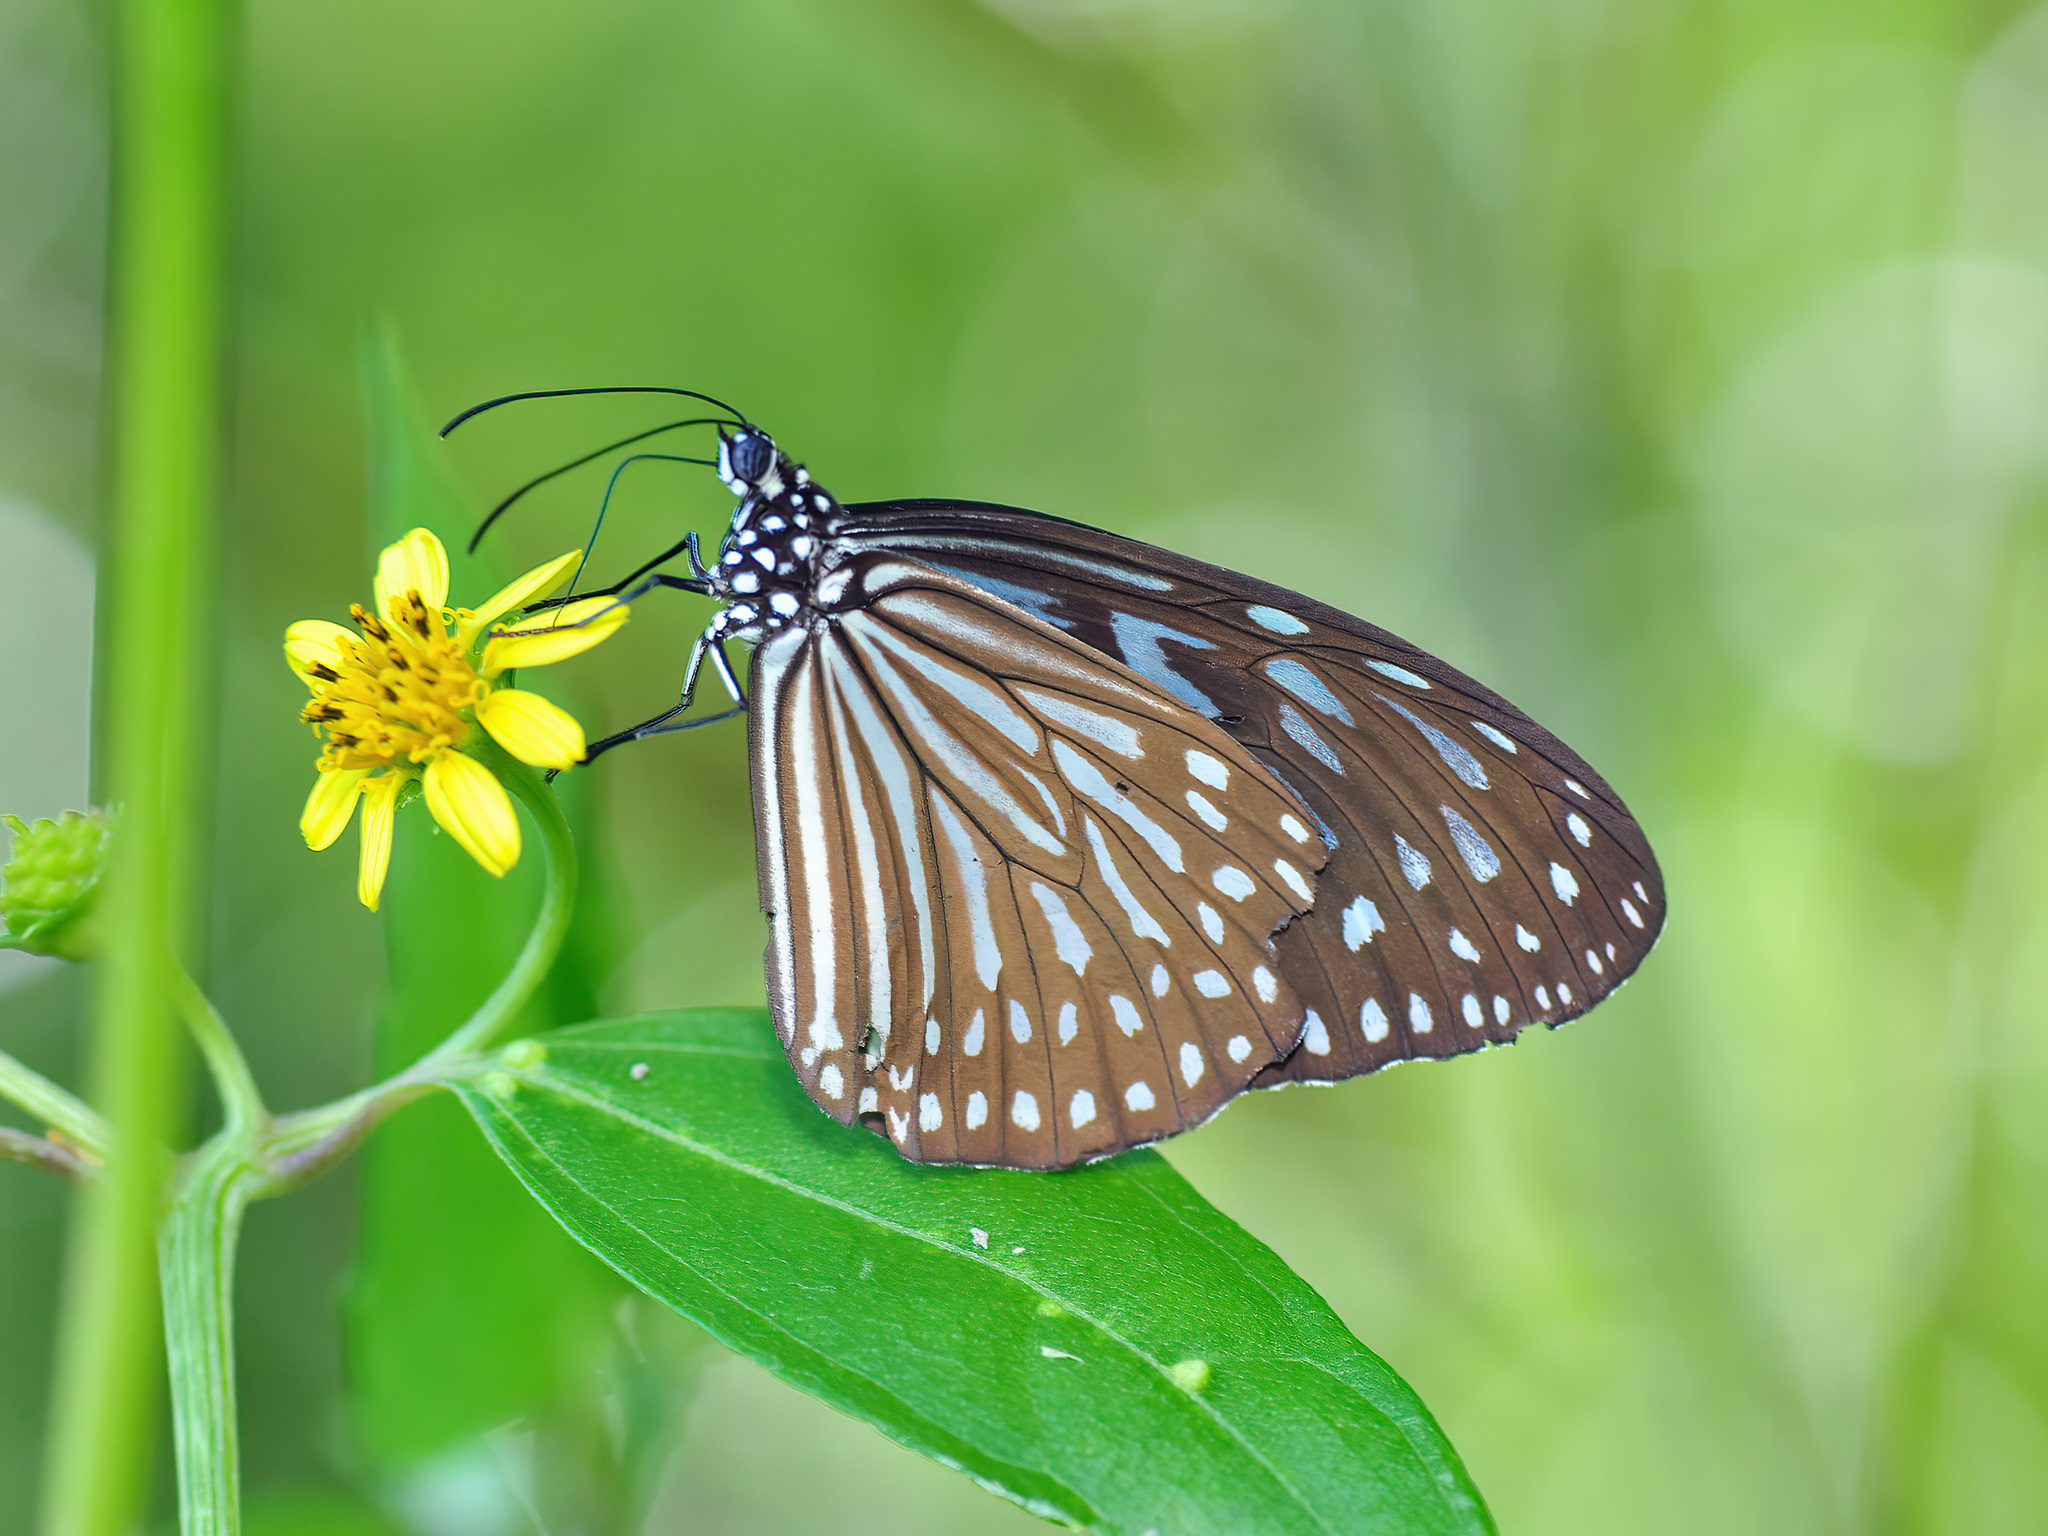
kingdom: Animalia
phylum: Arthropoda
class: Insecta
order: Lepidoptera
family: Nymphalidae
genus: Ideopsis
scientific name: Ideopsis vulgaris
